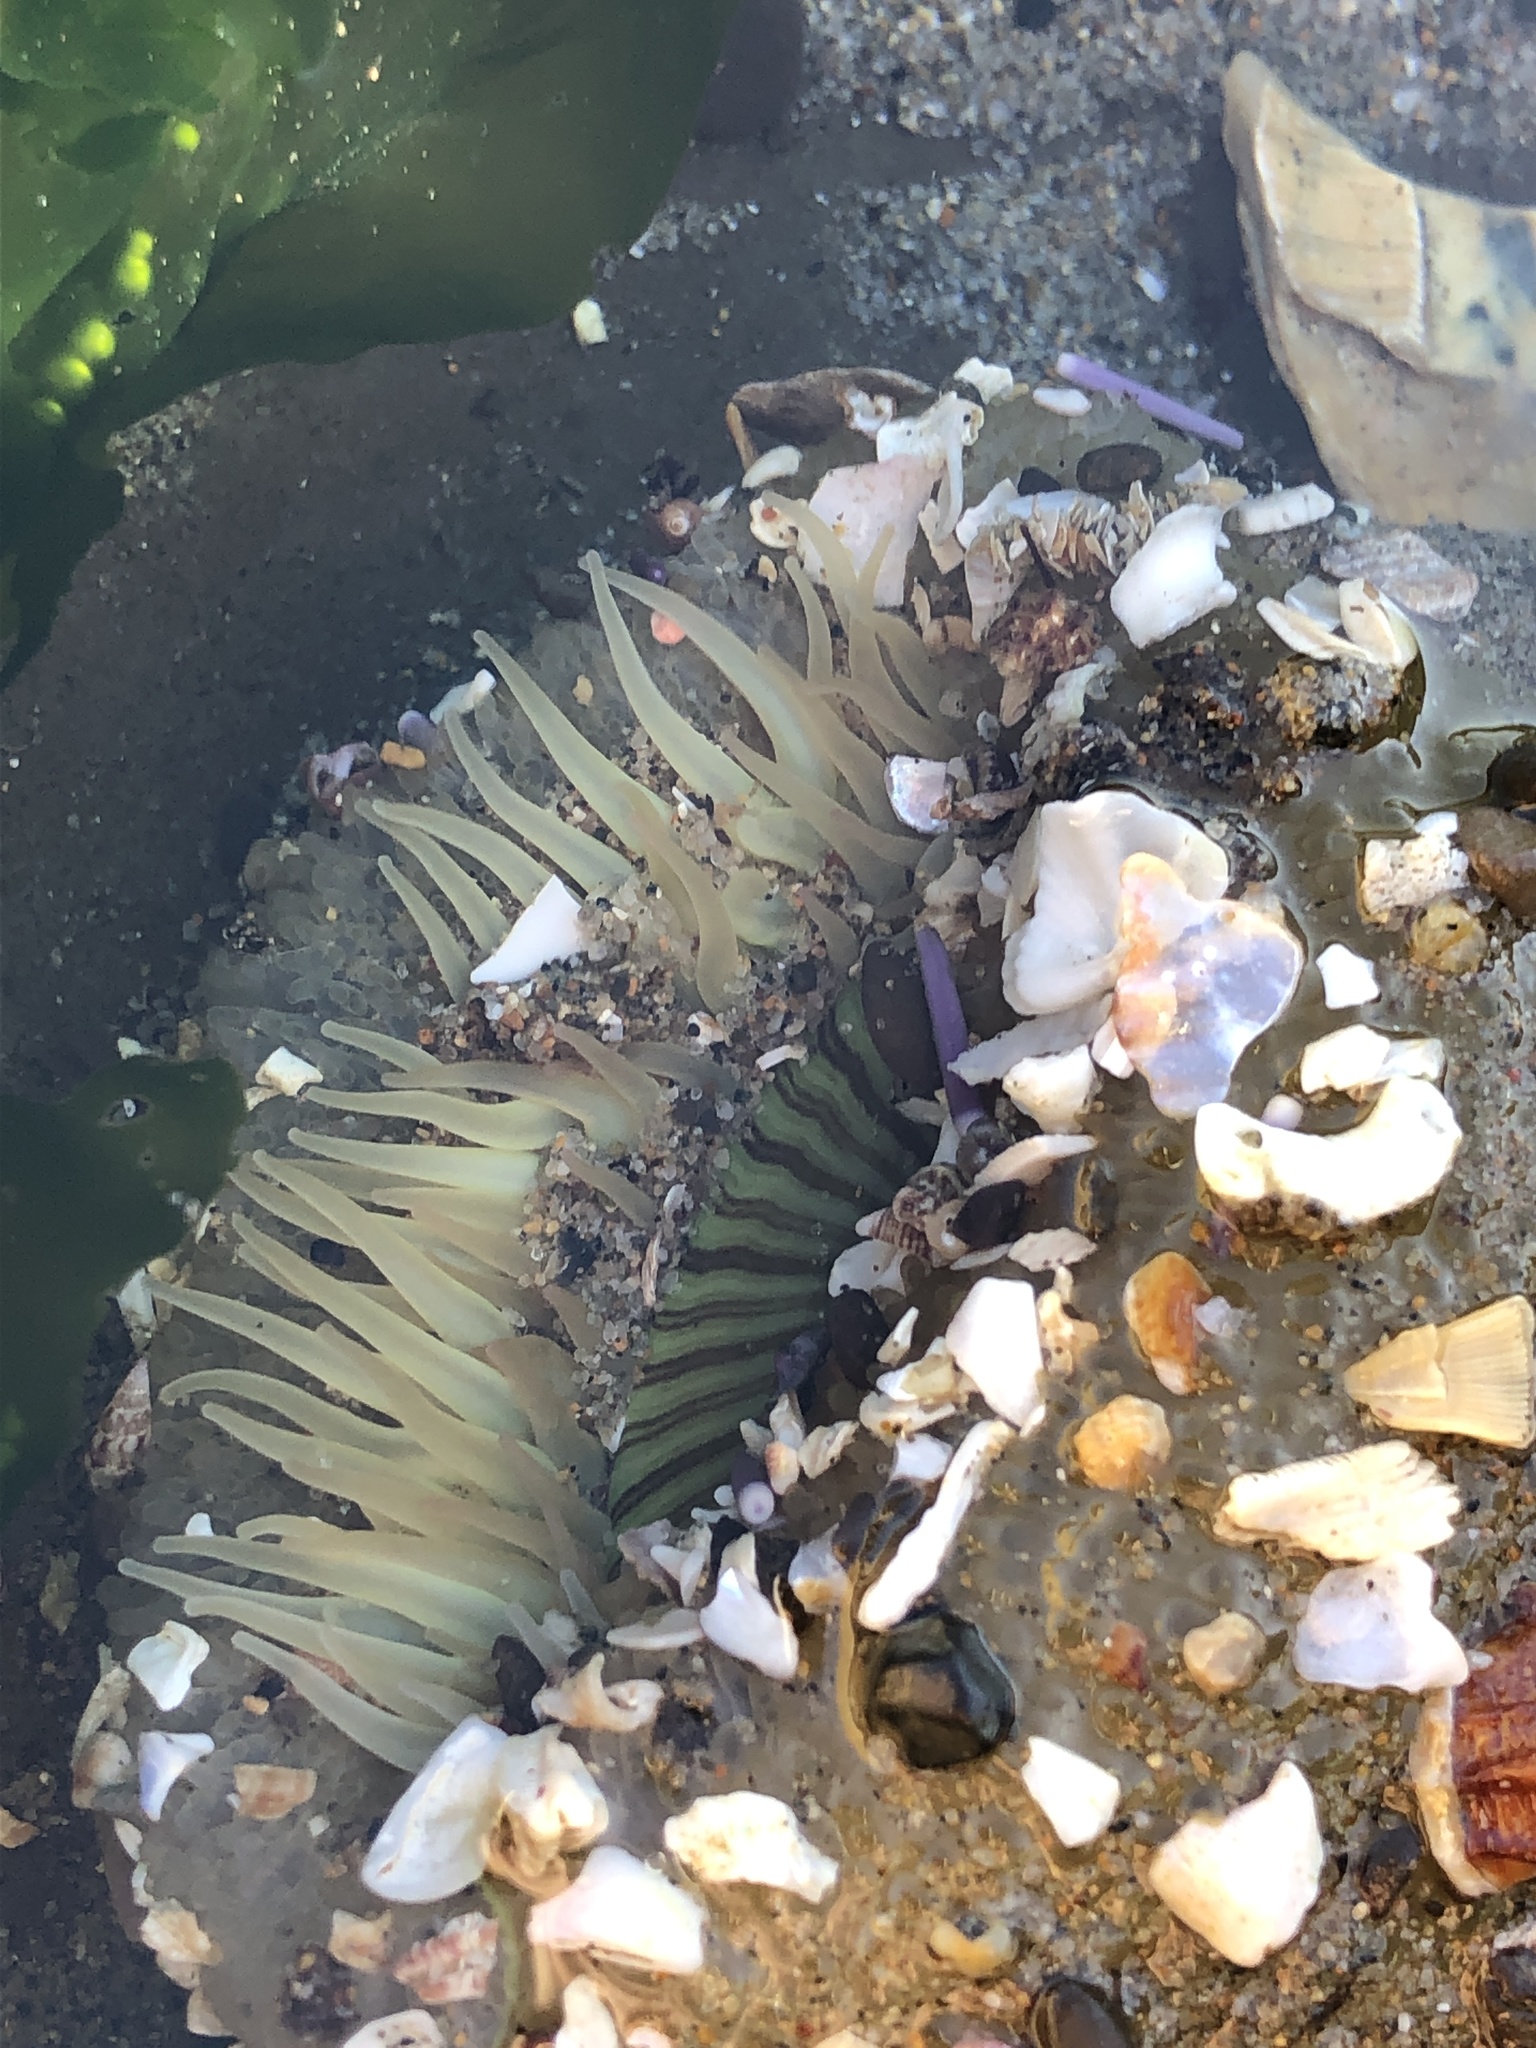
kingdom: Animalia
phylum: Cnidaria
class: Anthozoa
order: Actiniaria
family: Actiniidae
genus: Anthopleura
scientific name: Anthopleura sola
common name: Sun anemone
